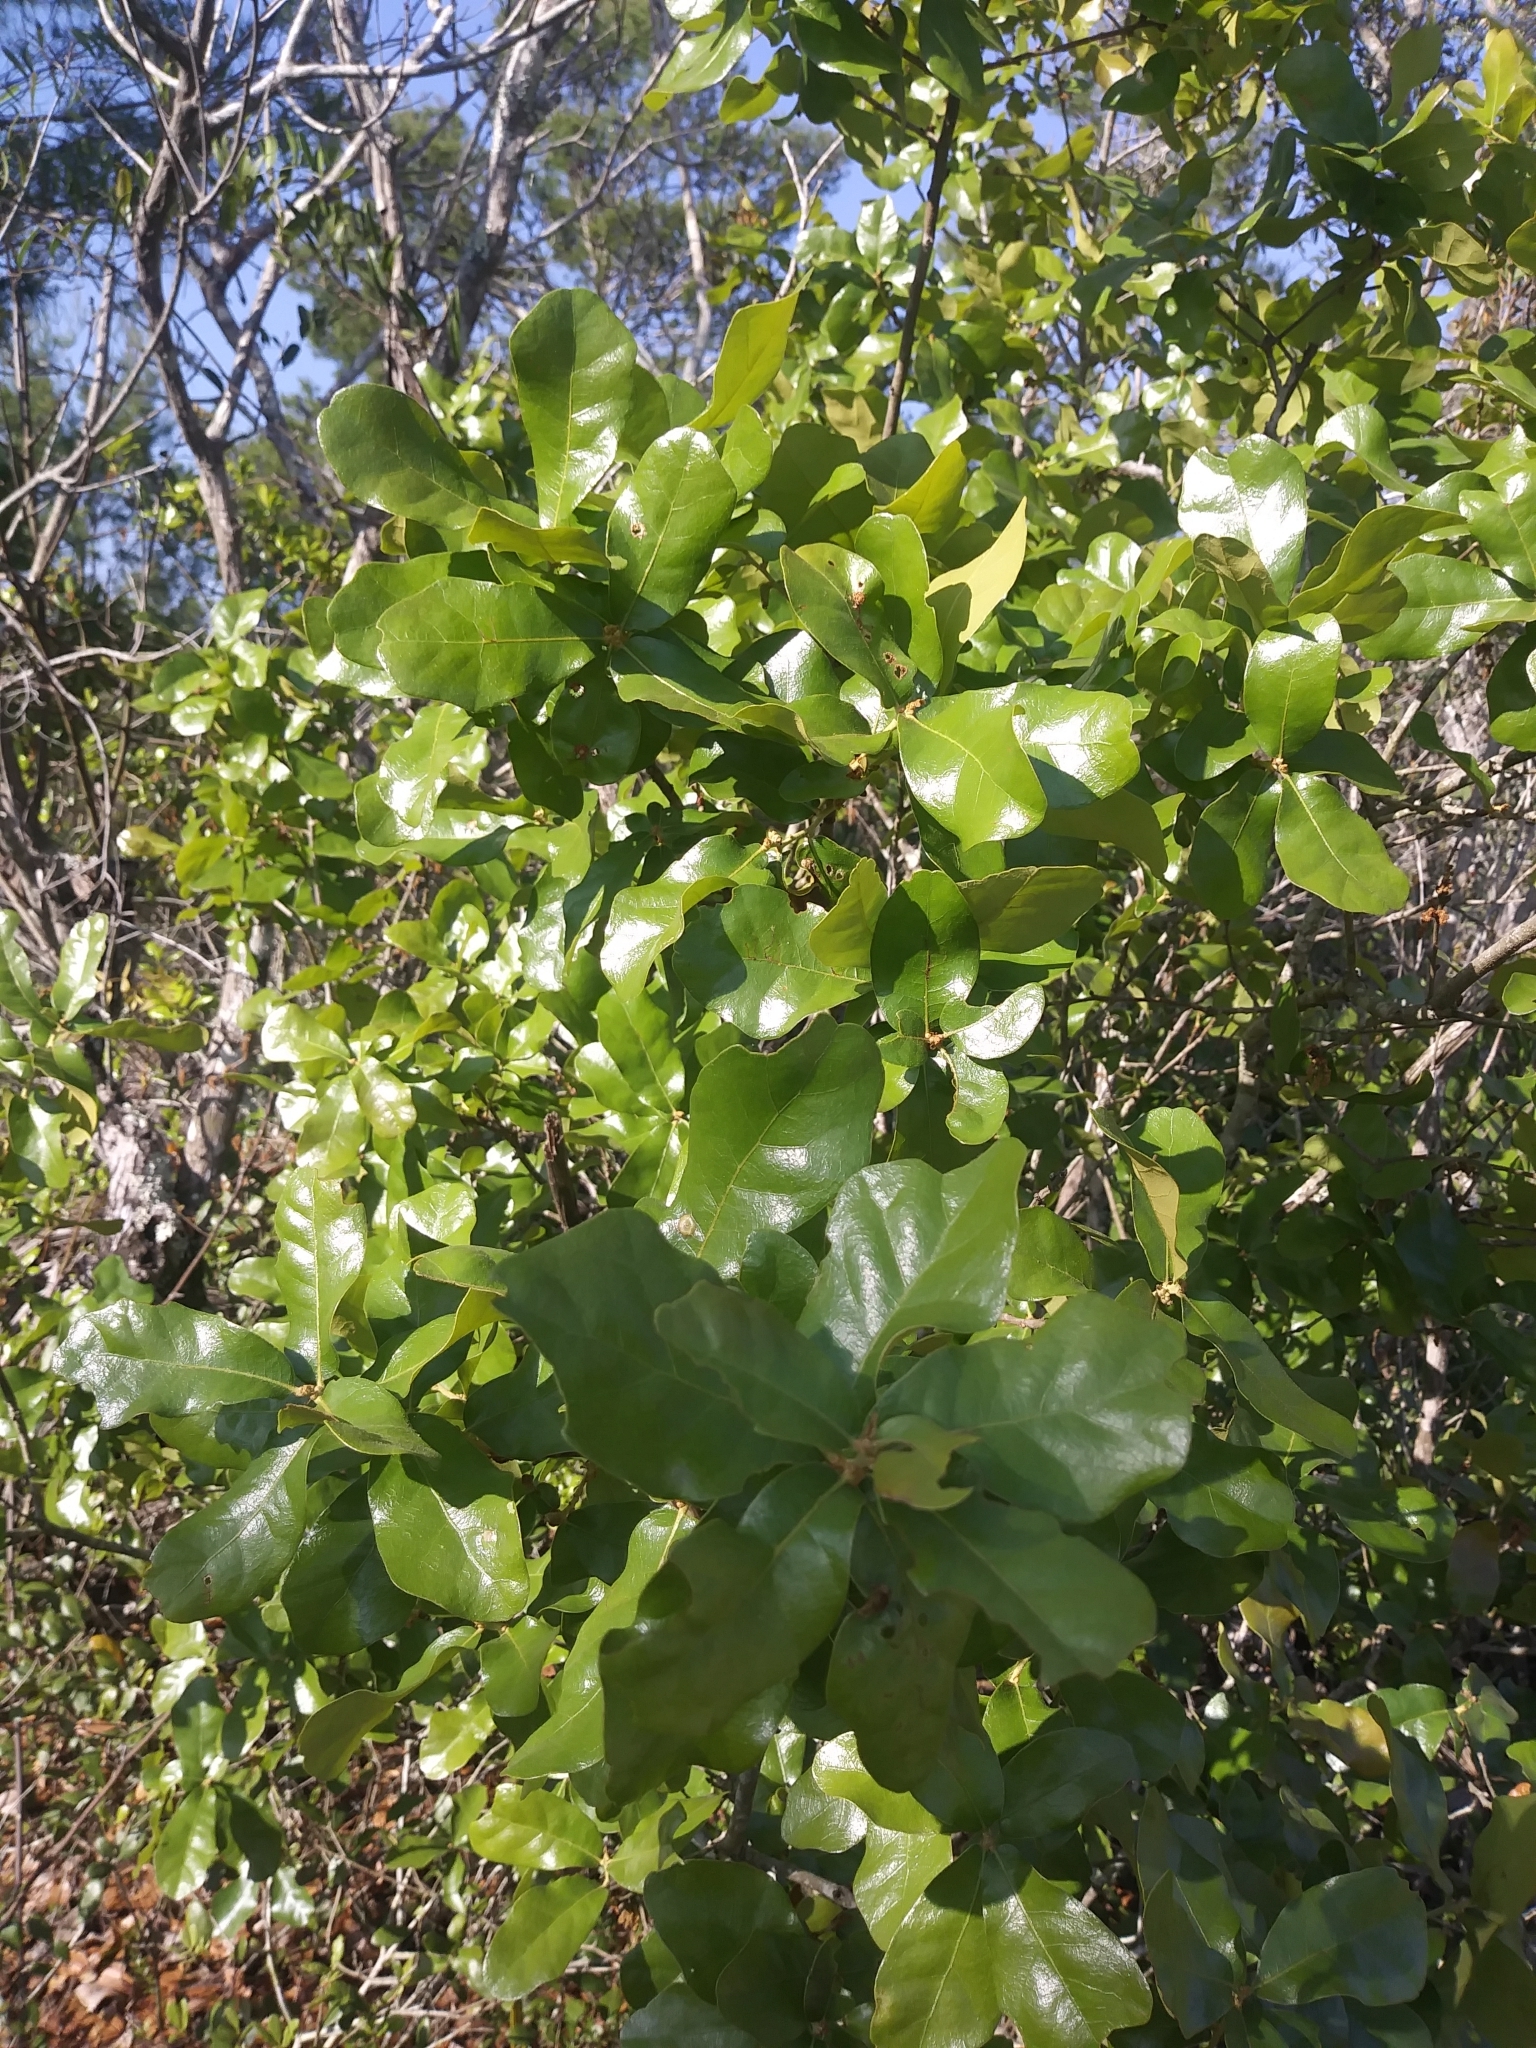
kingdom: Plantae
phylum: Tracheophyta
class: Magnoliopsida
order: Fagales
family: Fagaceae
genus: Quercus
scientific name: Quercus chapmanii
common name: Chapman oak
